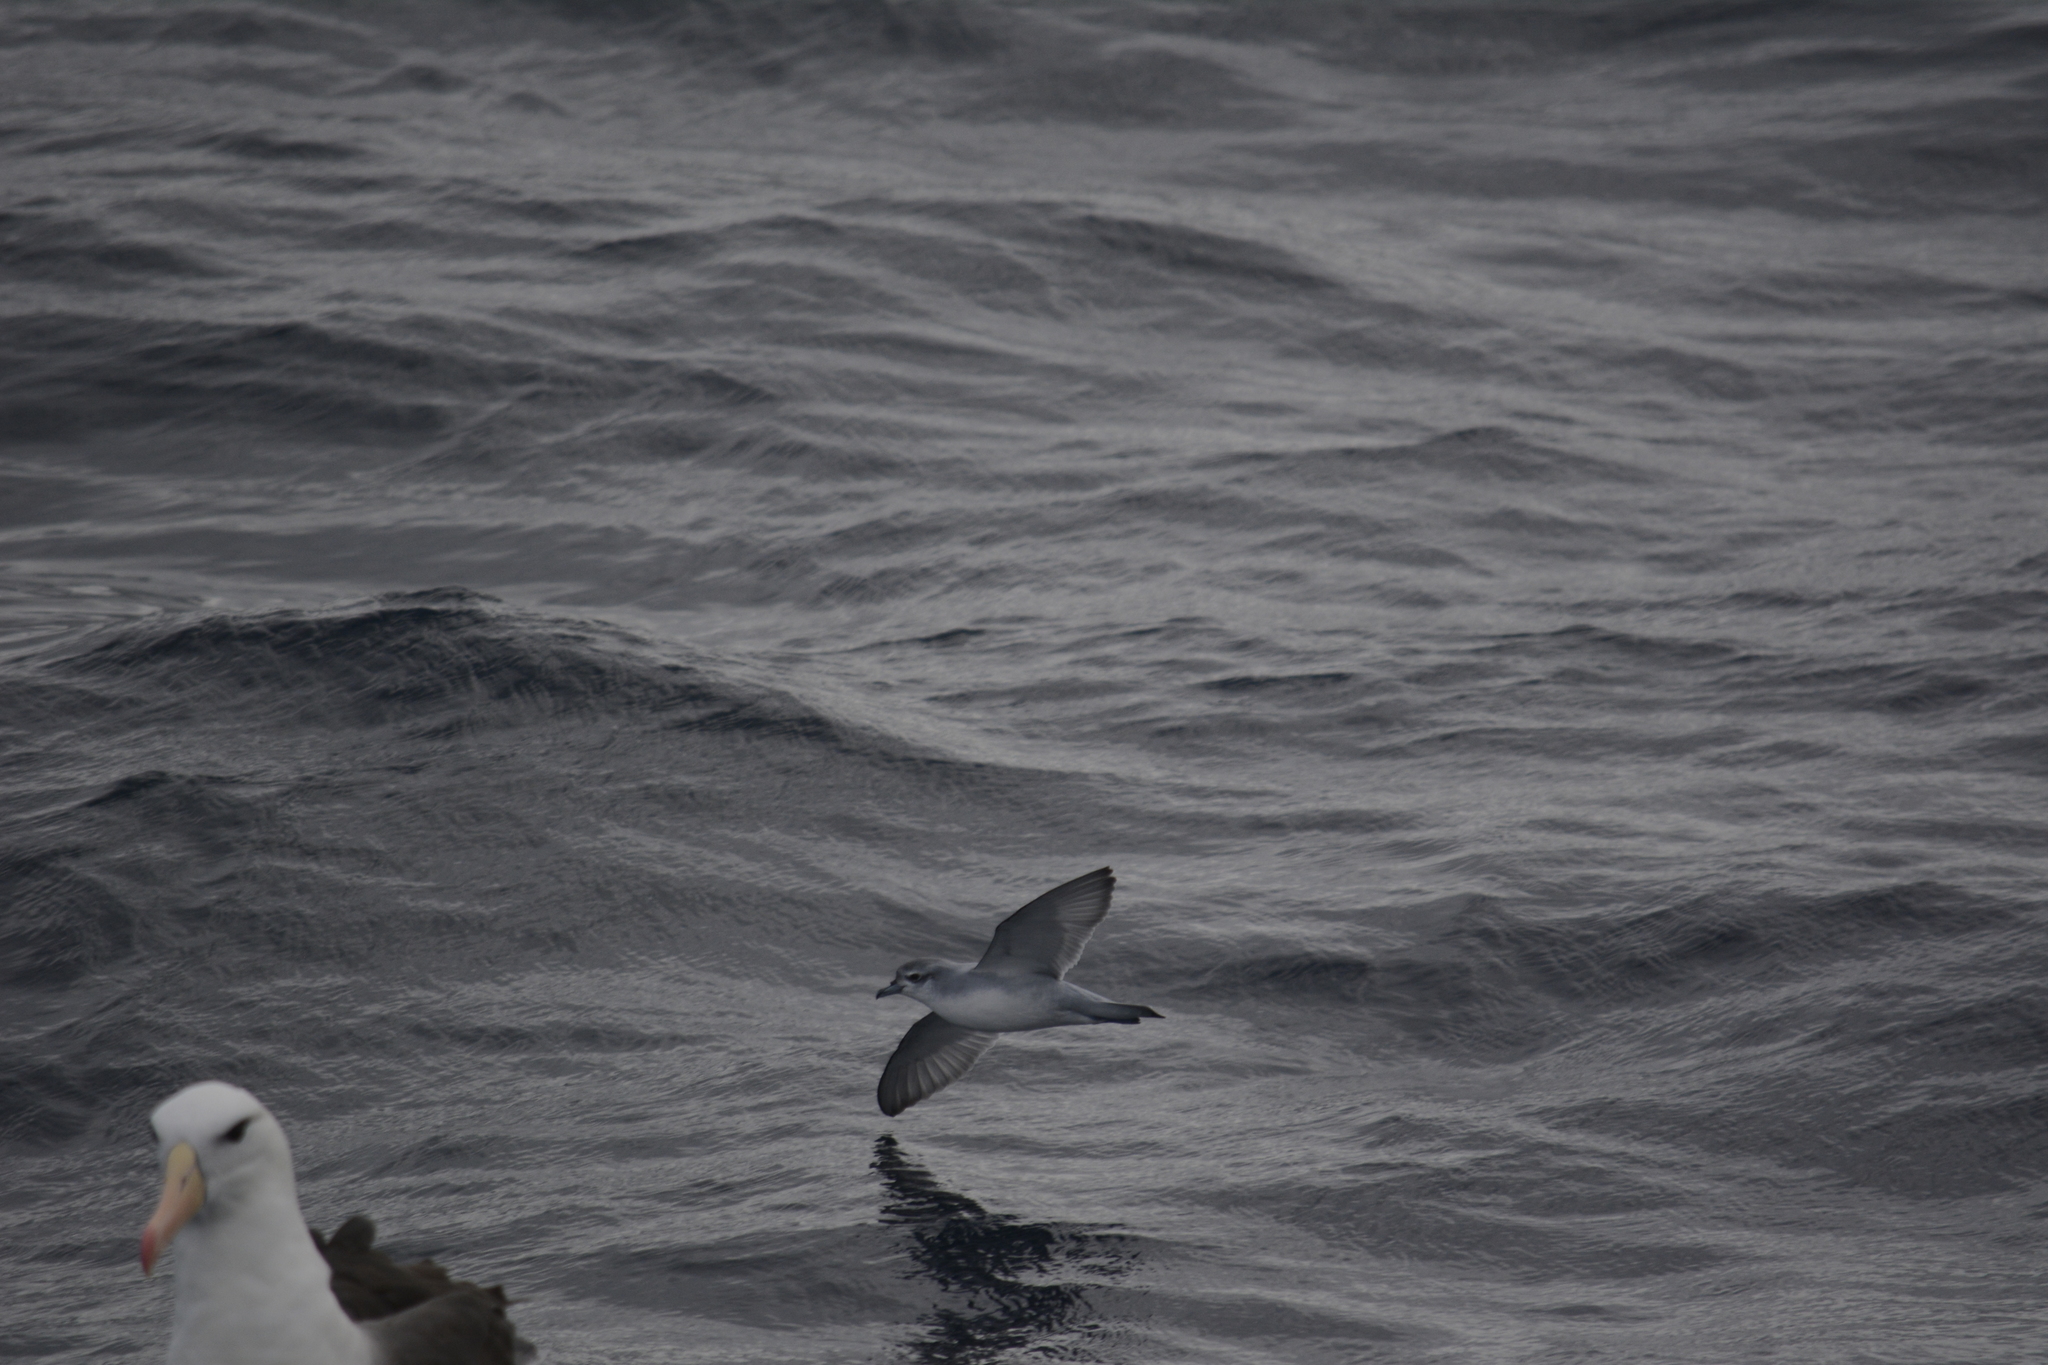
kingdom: Animalia
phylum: Chordata
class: Aves
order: Procellariiformes
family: Procellariidae
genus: Pachyptila
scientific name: Pachyptila turtur
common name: Fairy prion
